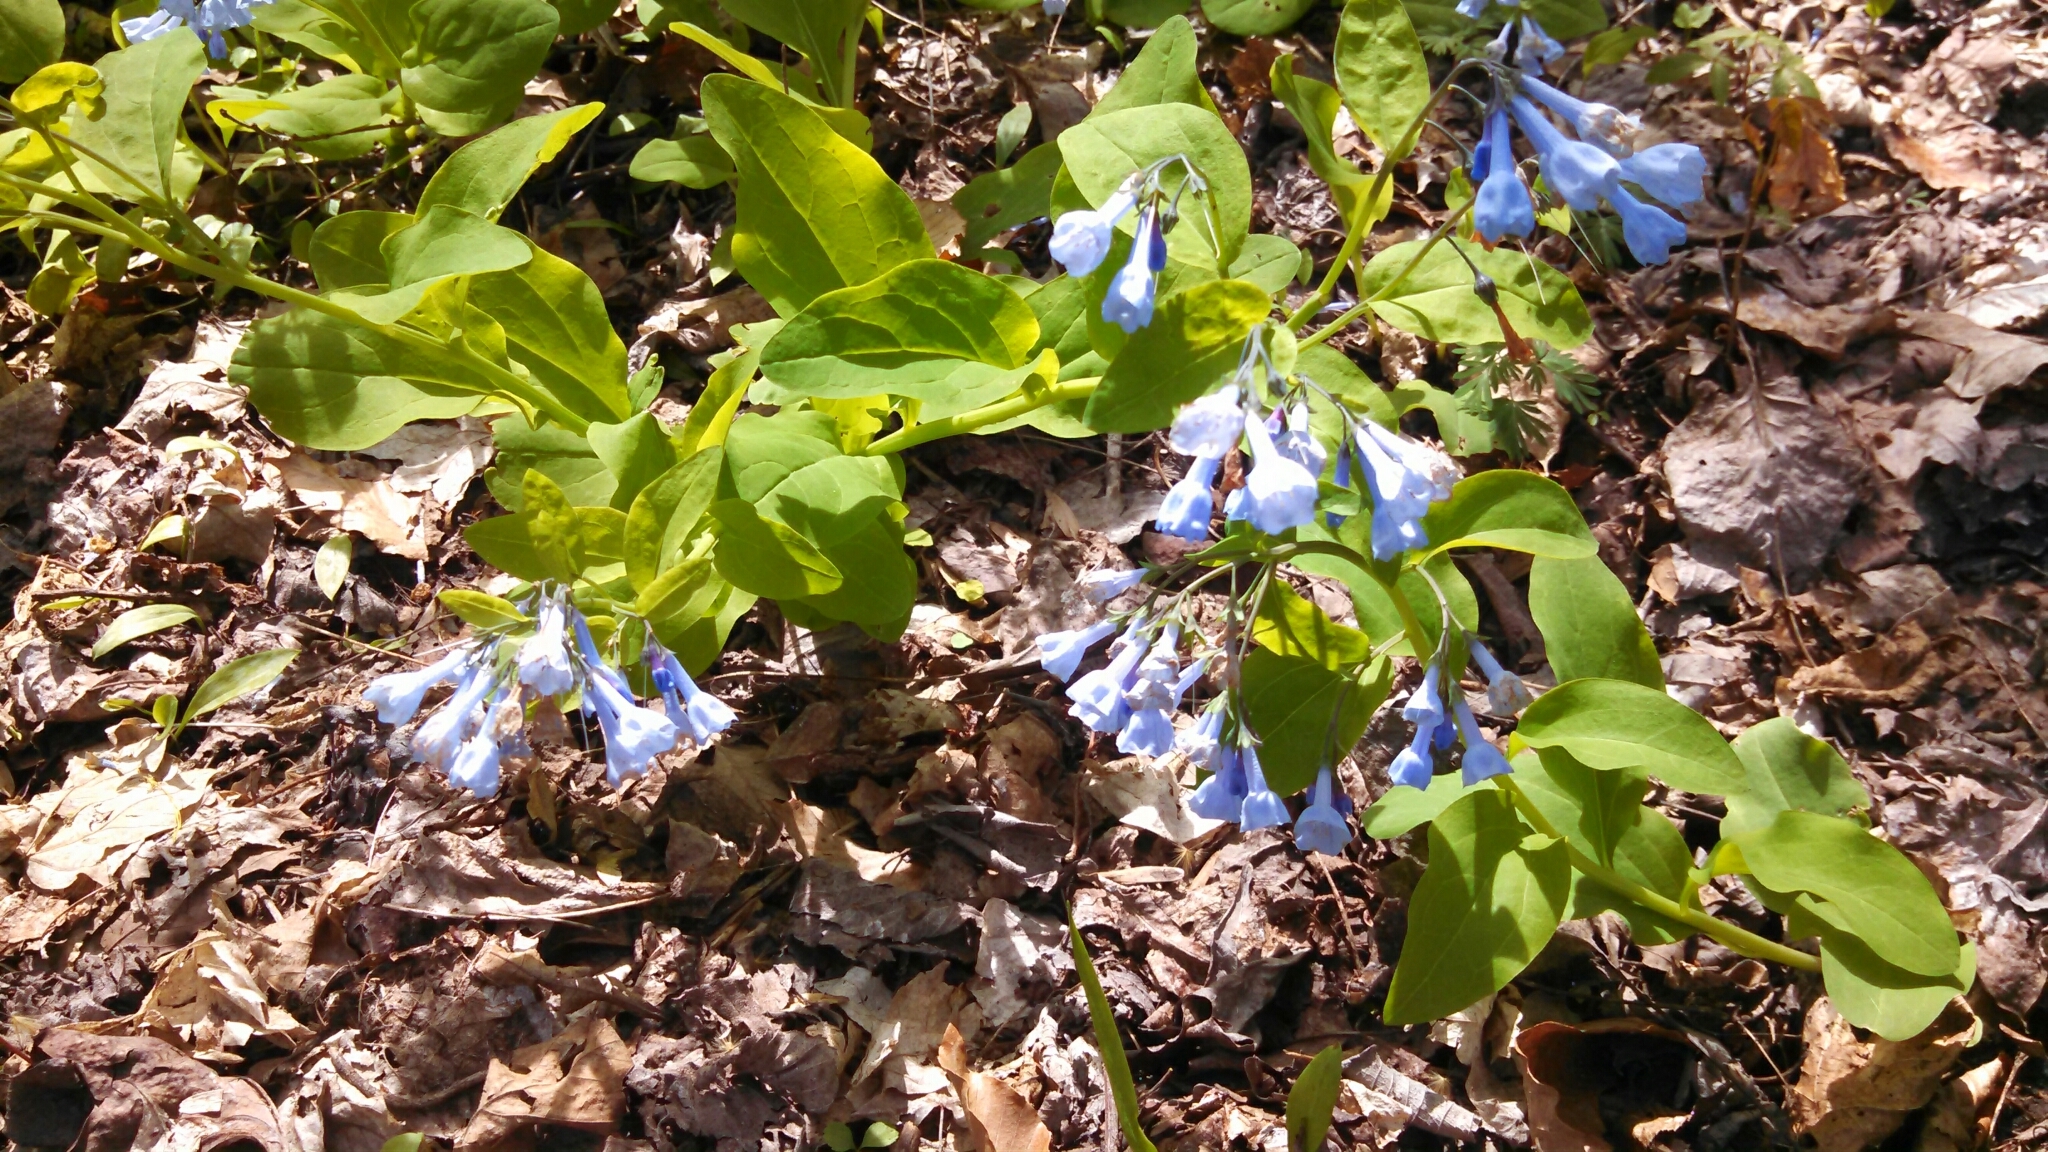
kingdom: Plantae
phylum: Tracheophyta
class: Magnoliopsida
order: Boraginales
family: Boraginaceae
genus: Mertensia
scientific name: Mertensia virginica
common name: Virginia bluebells
